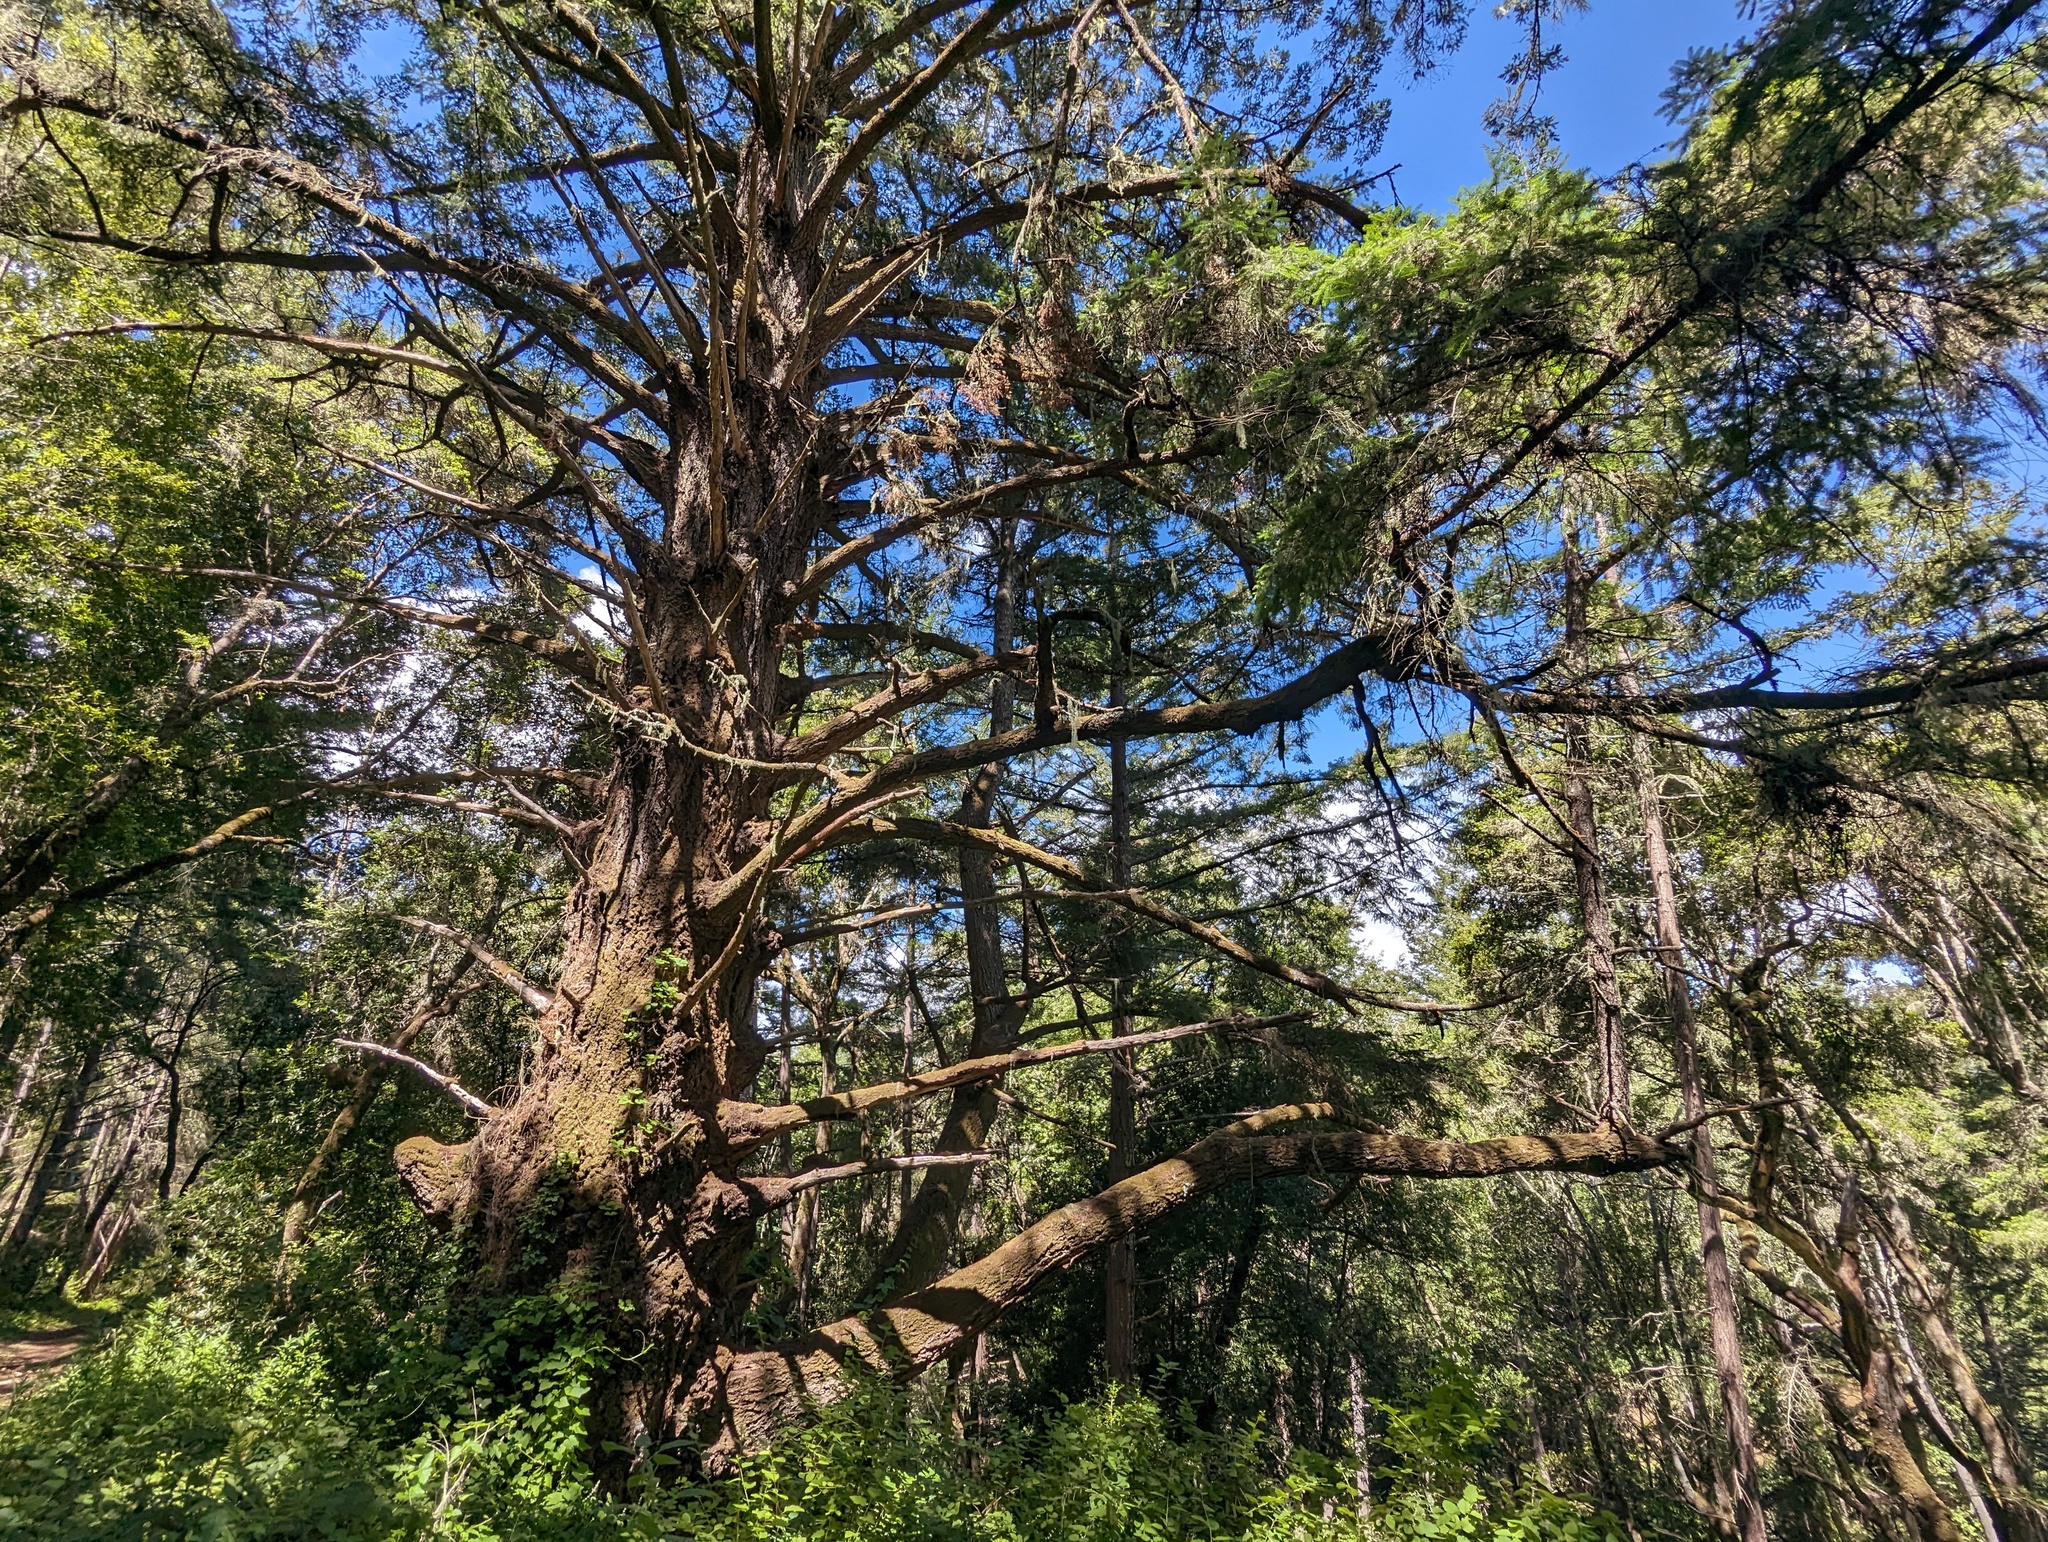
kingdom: Plantae
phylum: Tracheophyta
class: Pinopsida
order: Pinales
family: Pinaceae
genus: Pseudotsuga
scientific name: Pseudotsuga menziesii
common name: Douglas fir
